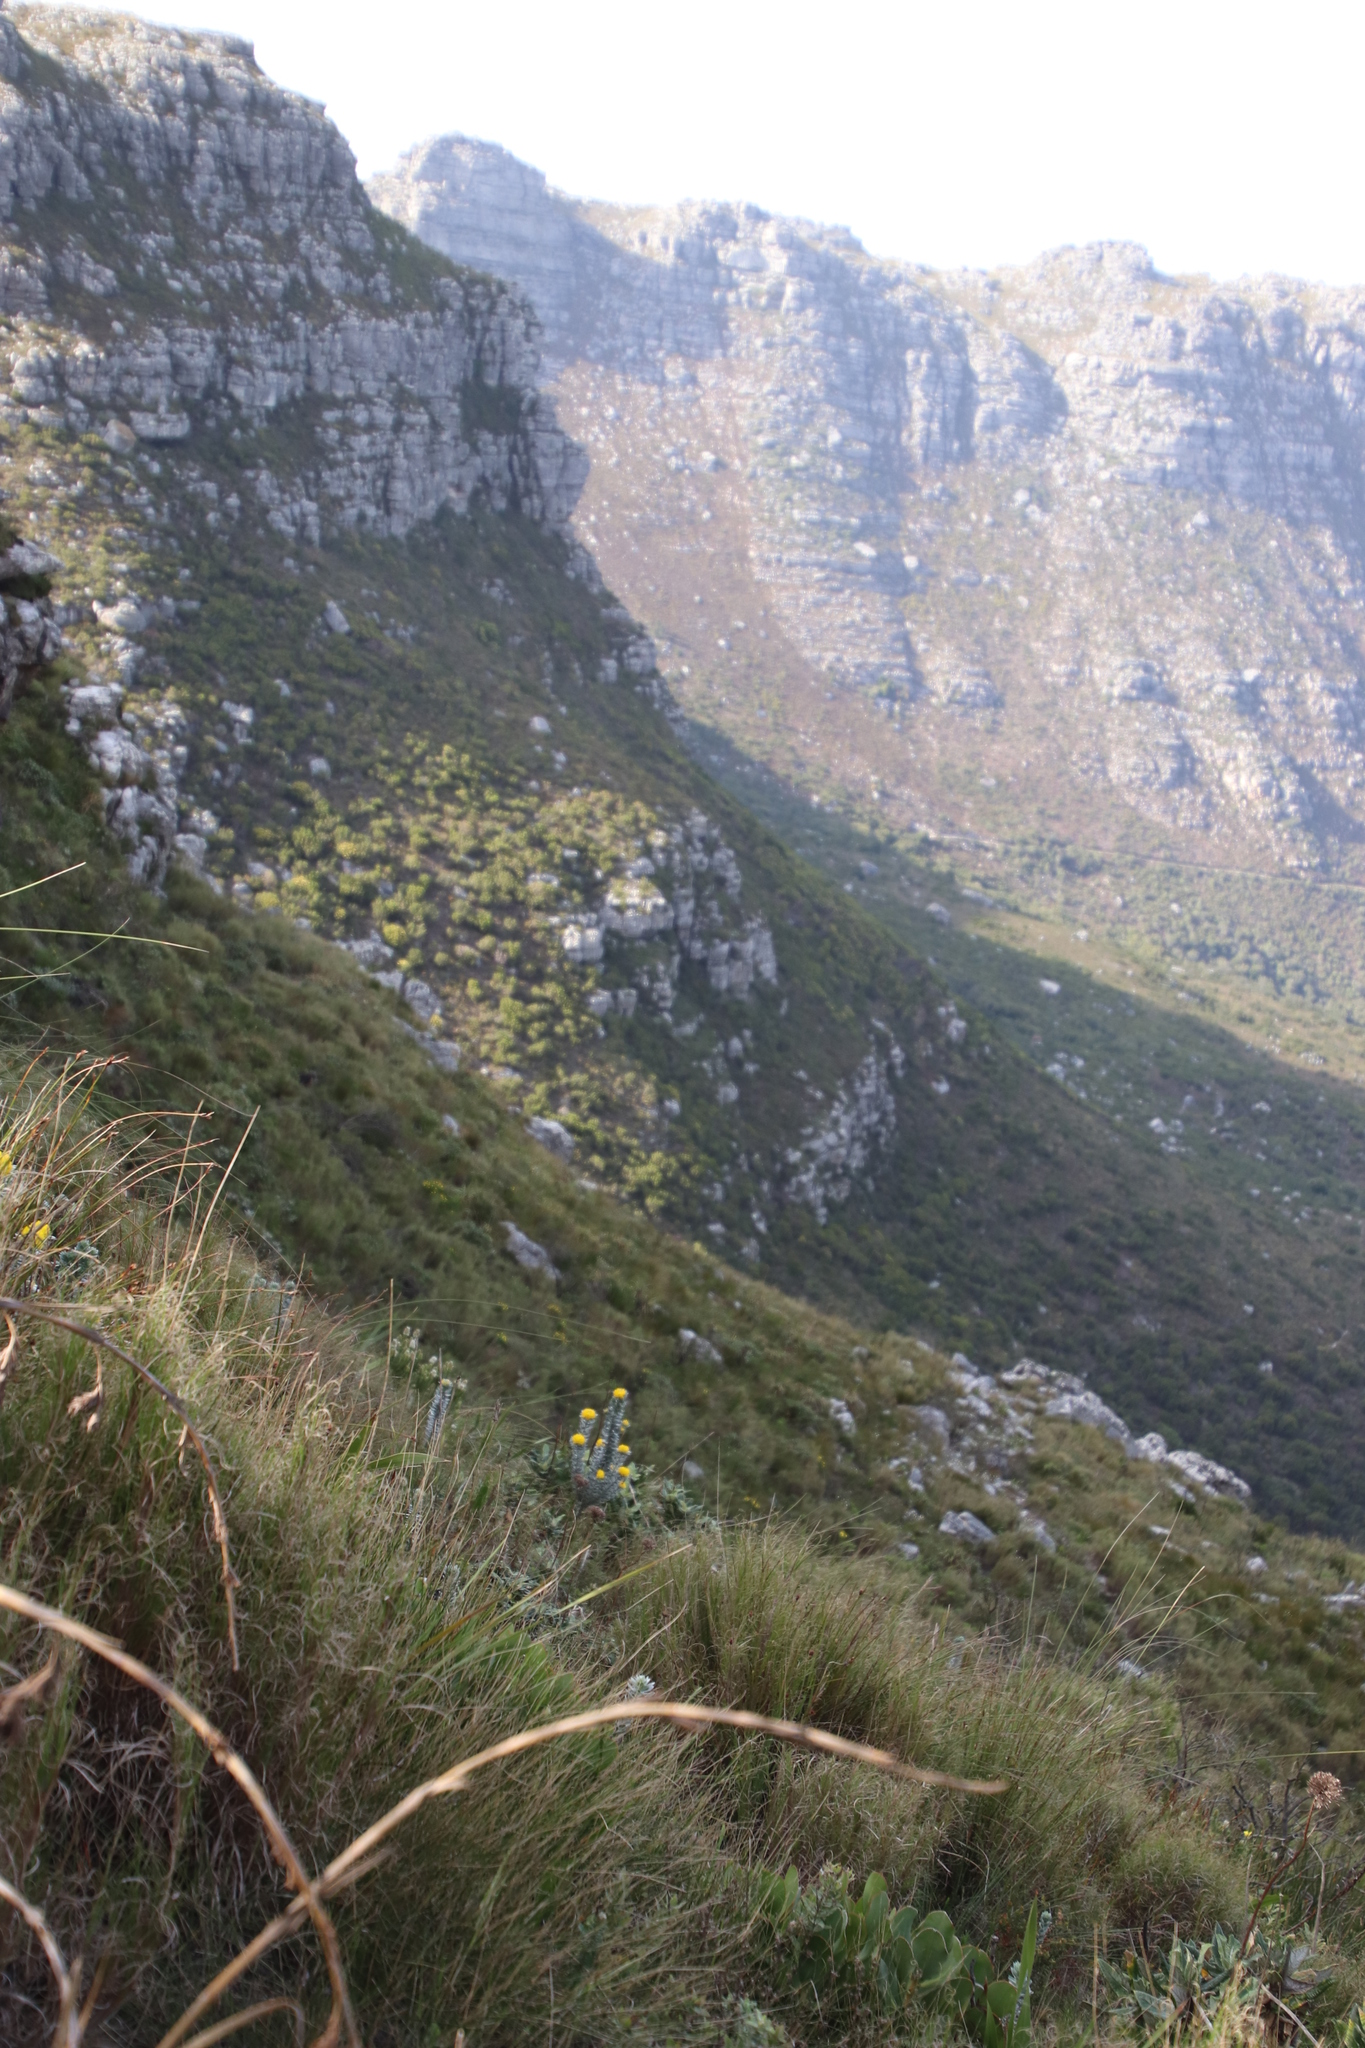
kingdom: Plantae
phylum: Tracheophyta
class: Magnoliopsida
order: Fabales
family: Fabaceae
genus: Xiphotheca
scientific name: Xiphotheca fruticosa
